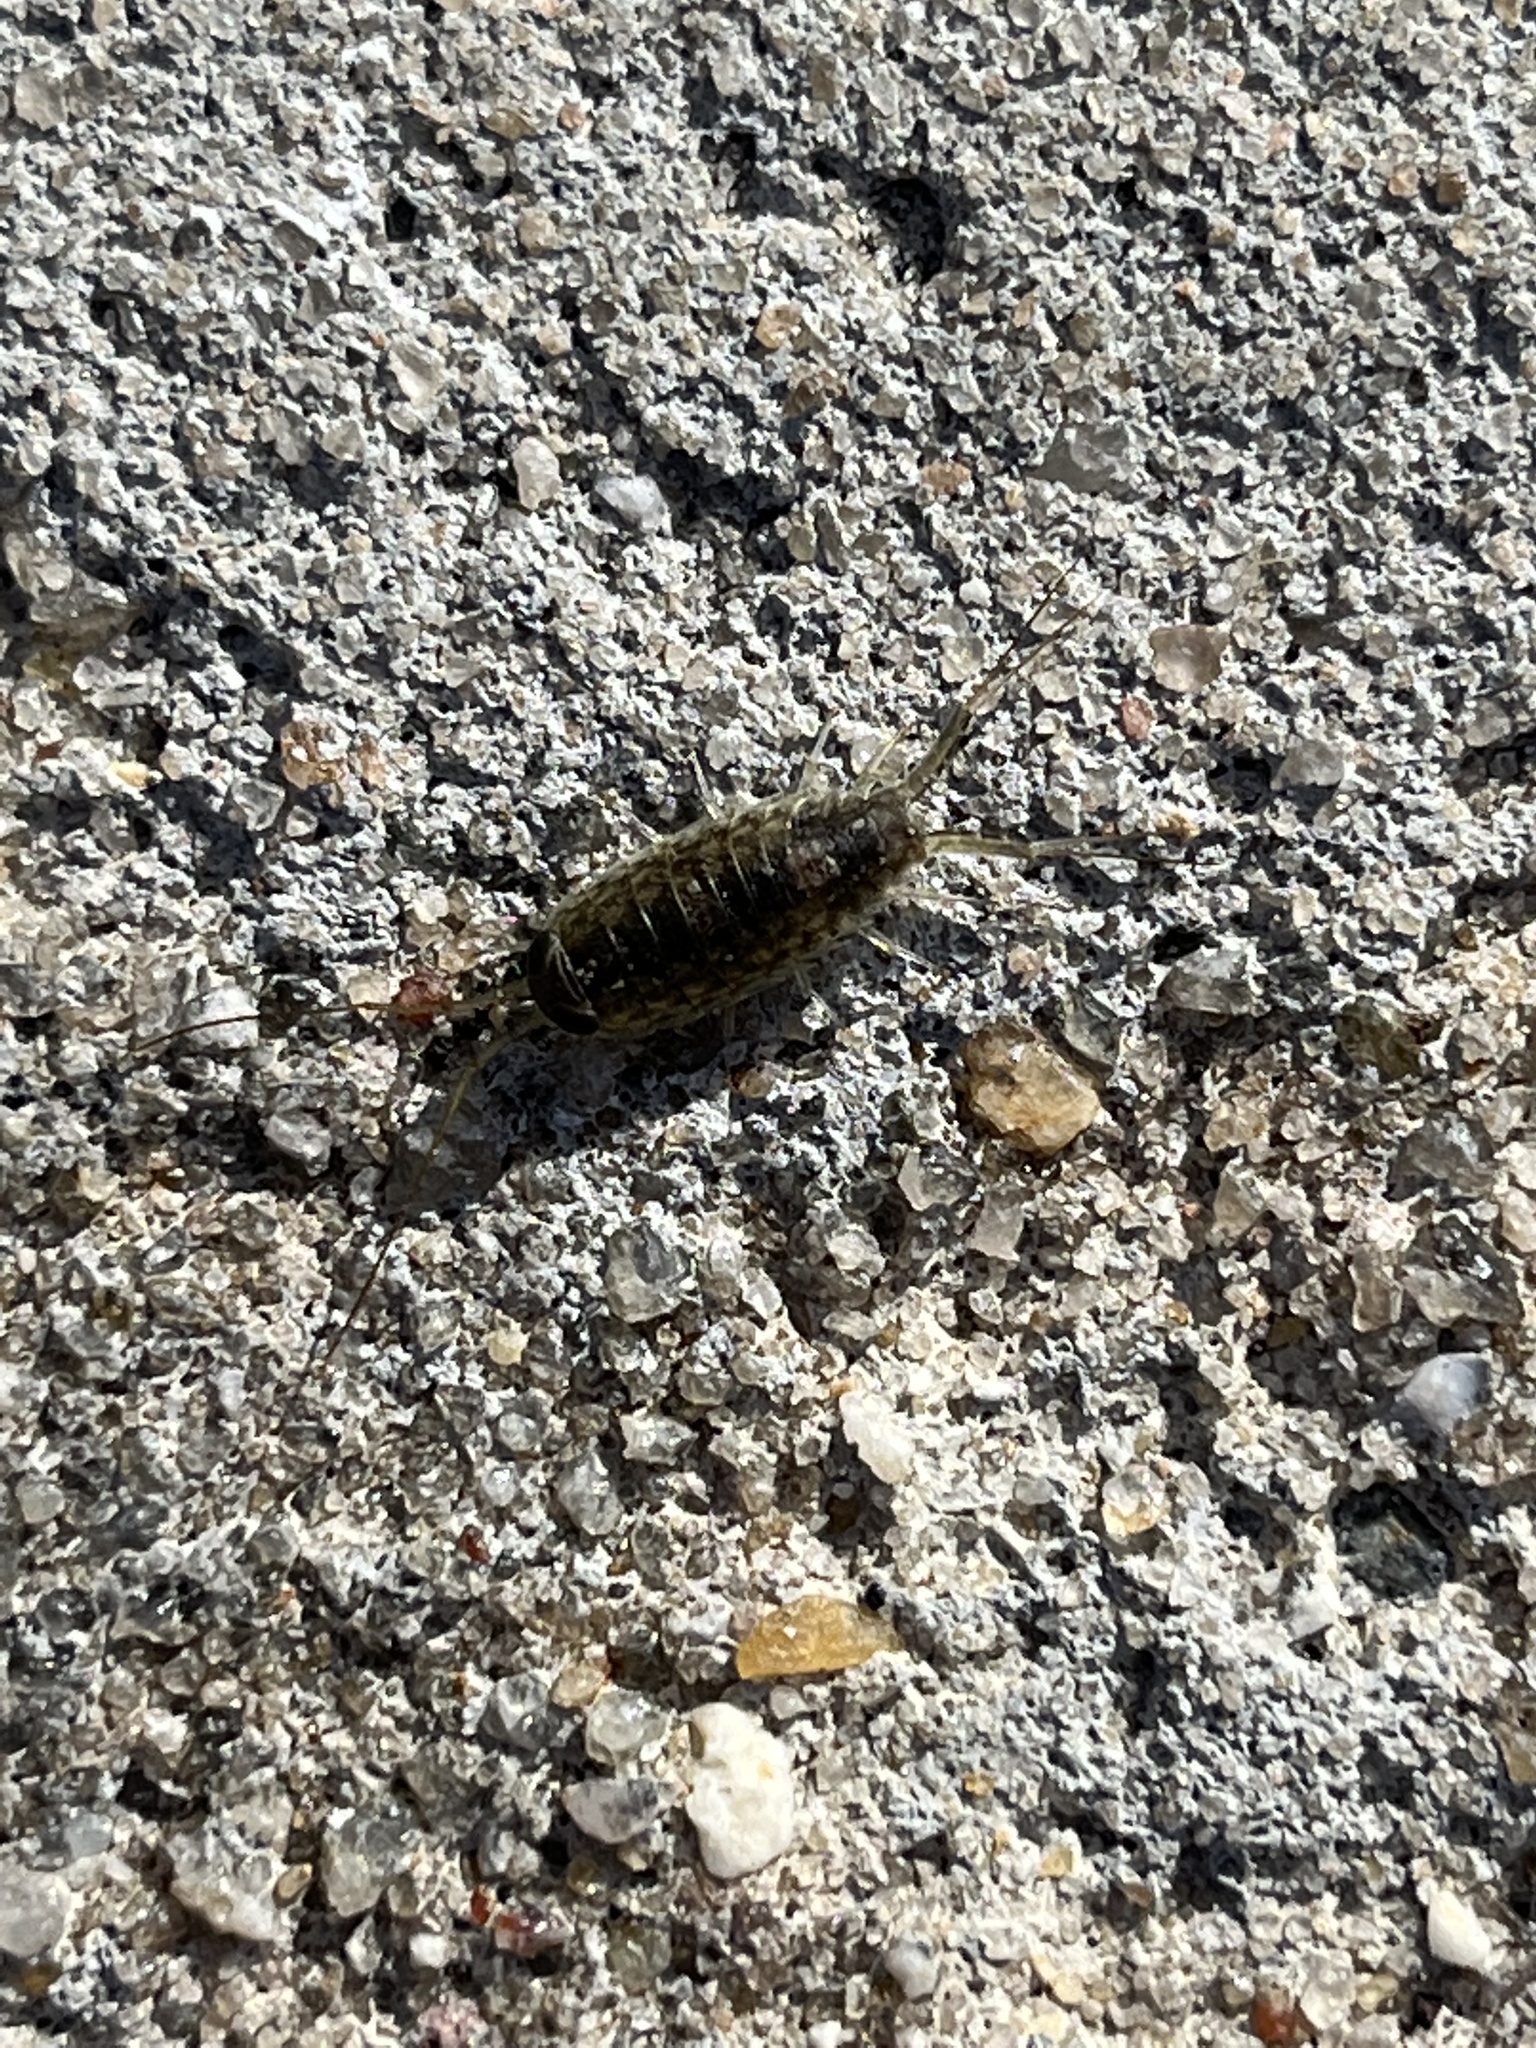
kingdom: Animalia
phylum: Arthropoda
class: Malacostraca
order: Isopoda
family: Ligiidae
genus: Ligia
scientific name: Ligia exotica
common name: Wharf roach
